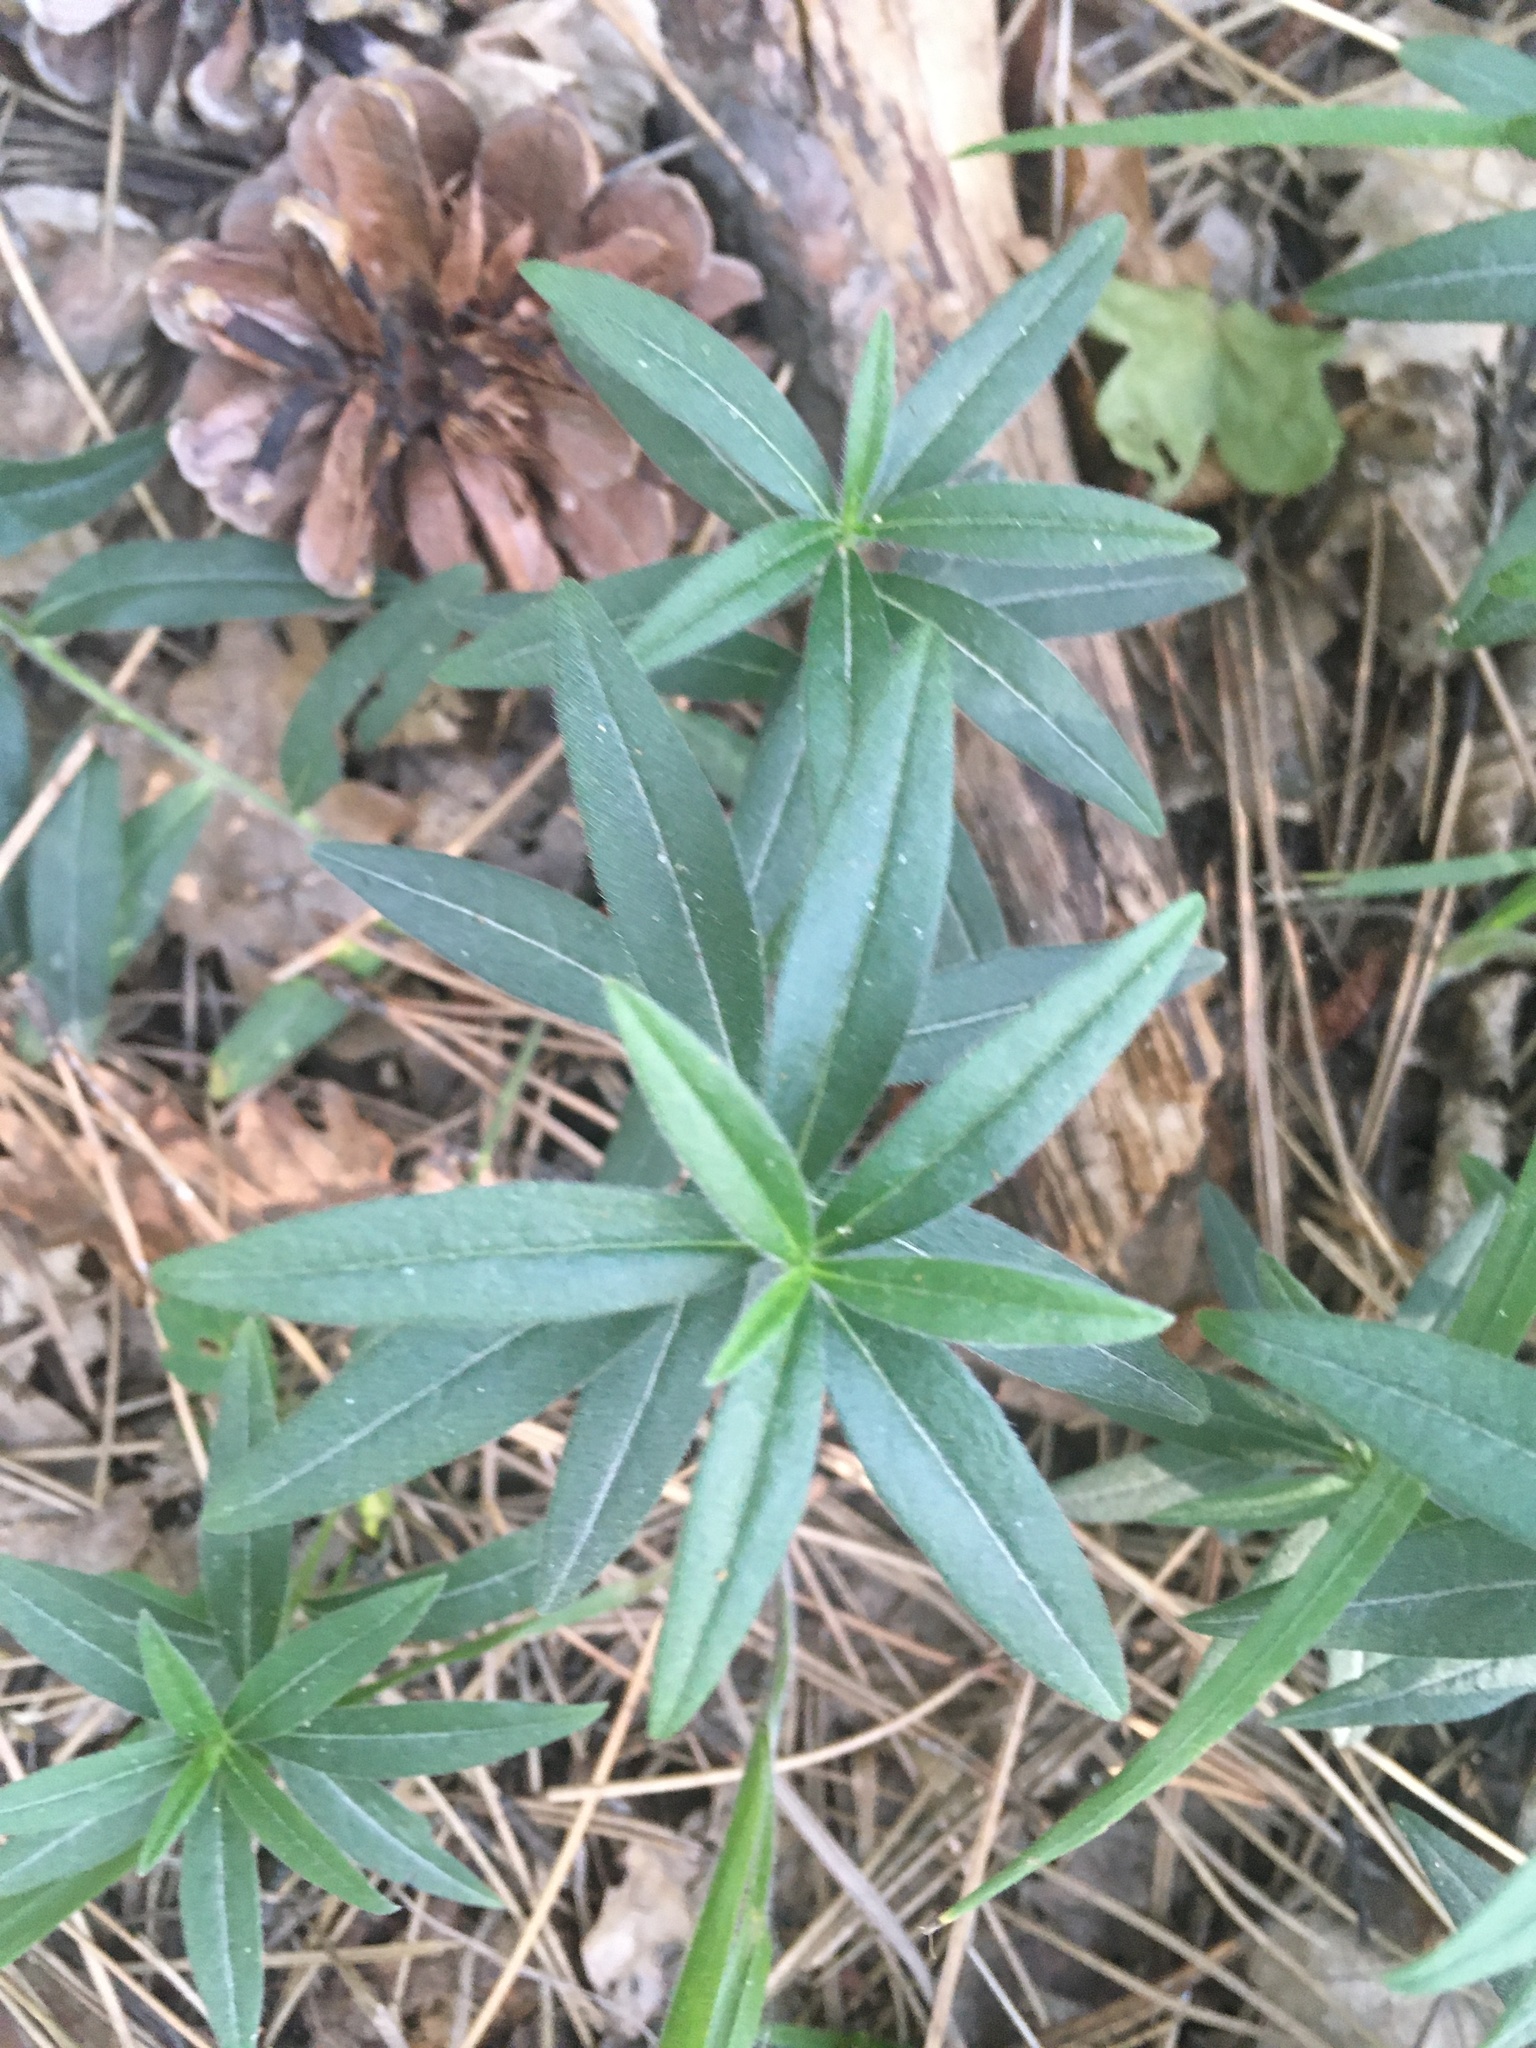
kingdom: Plantae
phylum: Tracheophyta
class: Magnoliopsida
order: Boraginales
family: Boraginaceae
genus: Aegonychon
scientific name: Aegonychon purpurocaeruleum
